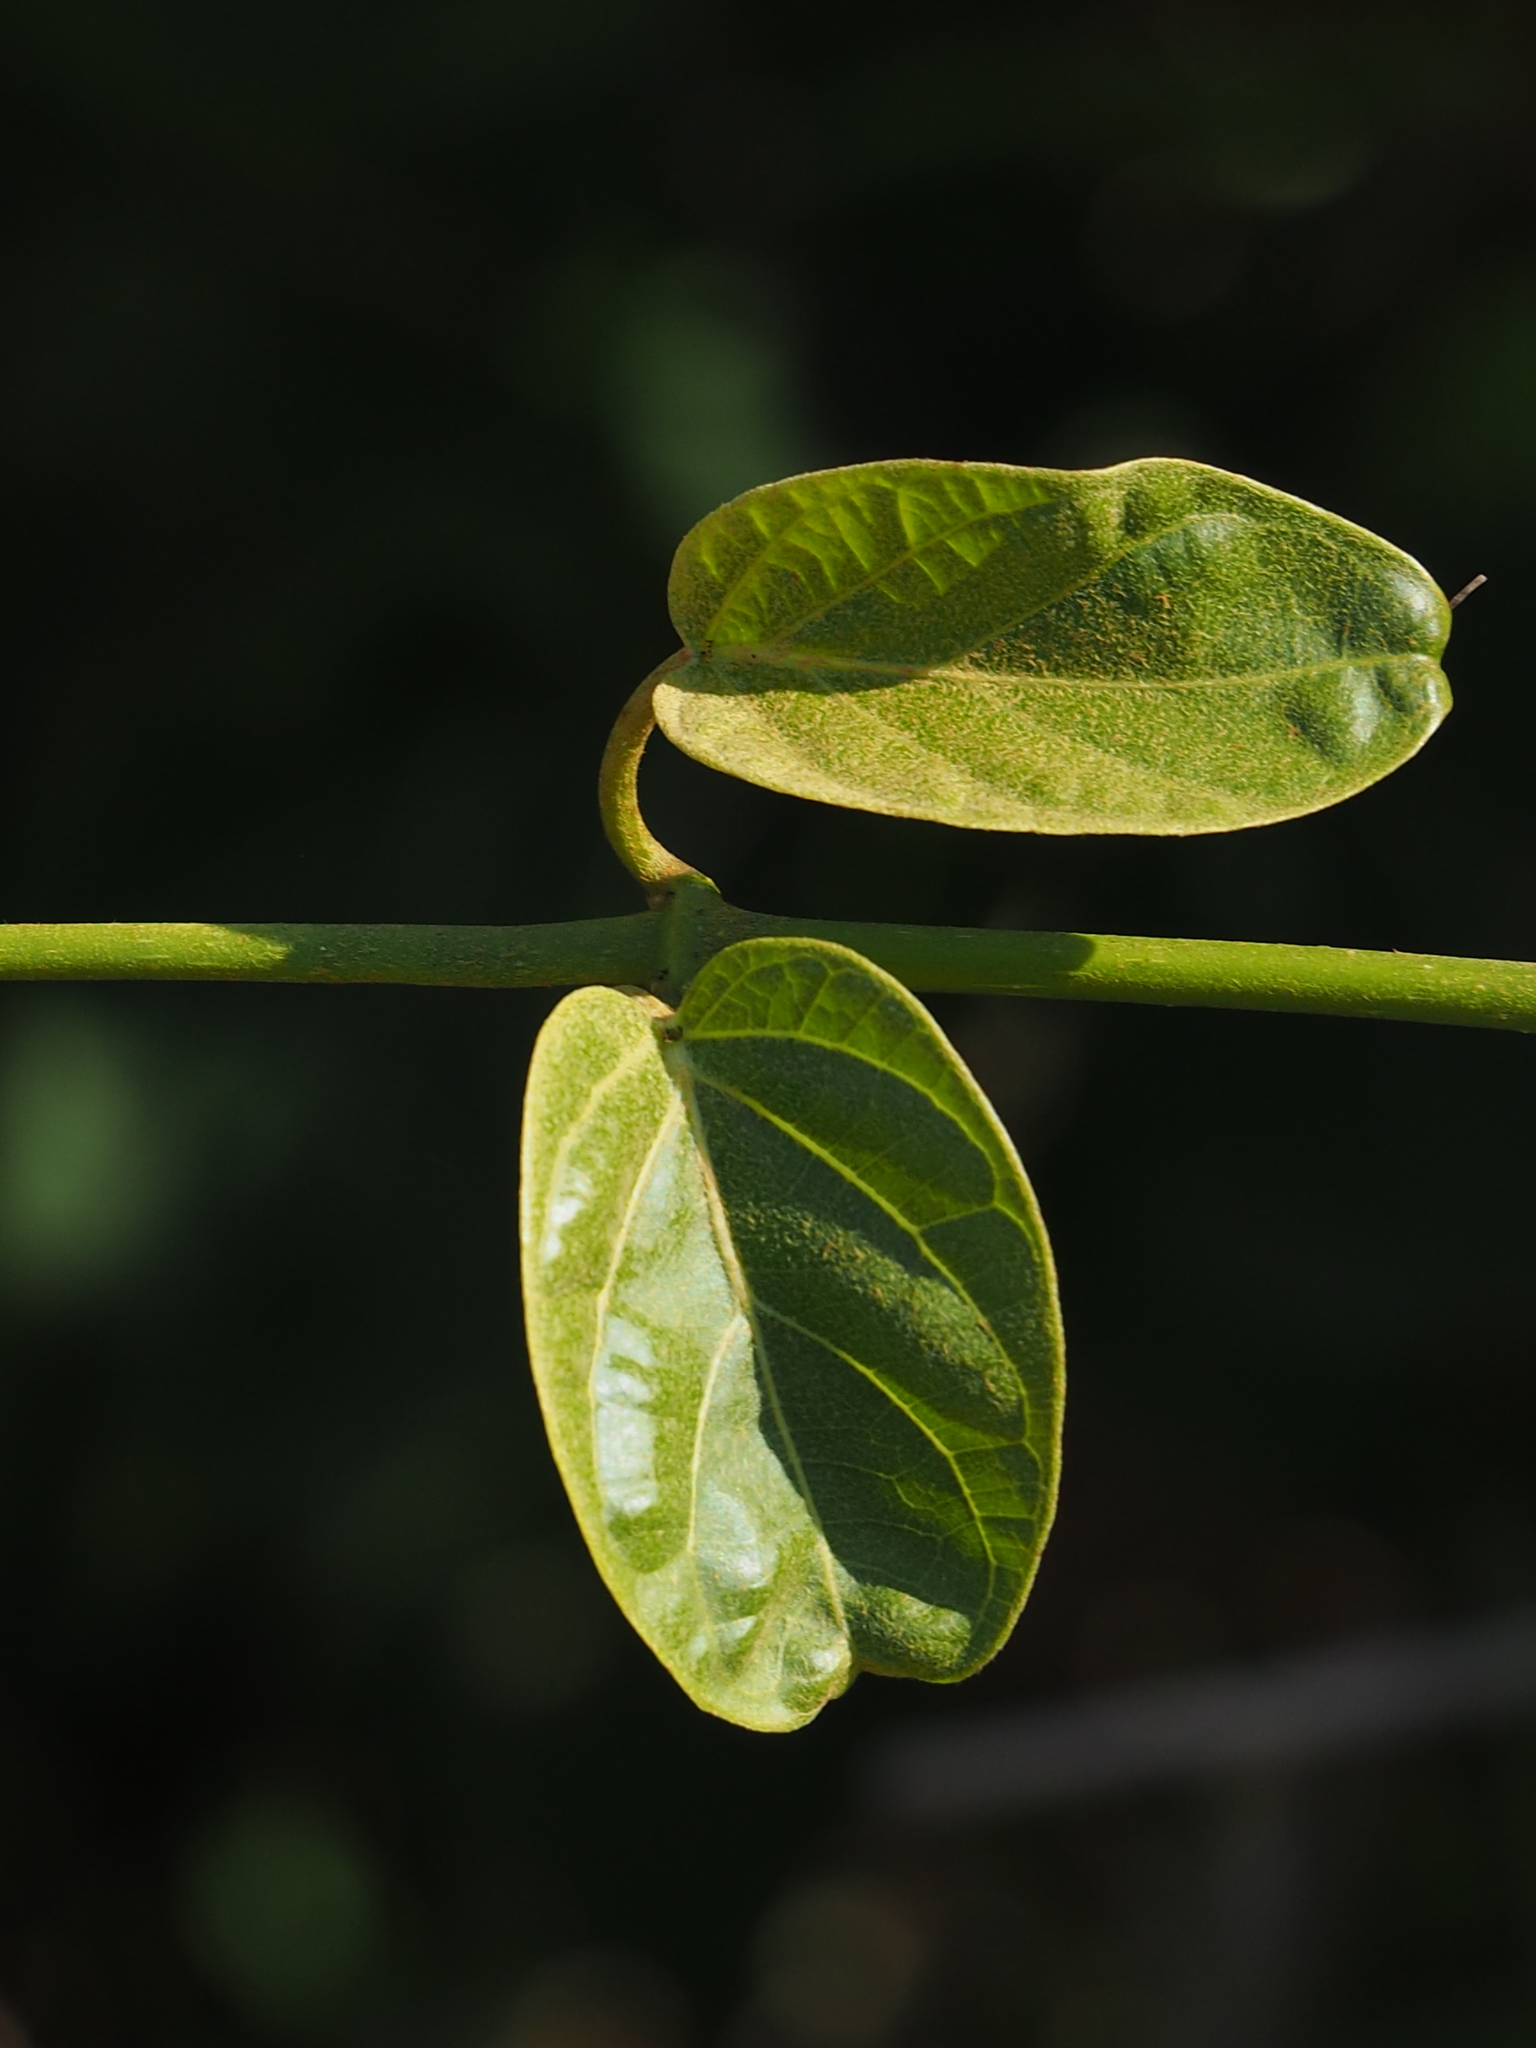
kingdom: Plantae
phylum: Tracheophyta
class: Magnoliopsida
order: Gentianales
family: Apocynaceae
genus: Stephanotis
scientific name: Stephanotis volubilis
